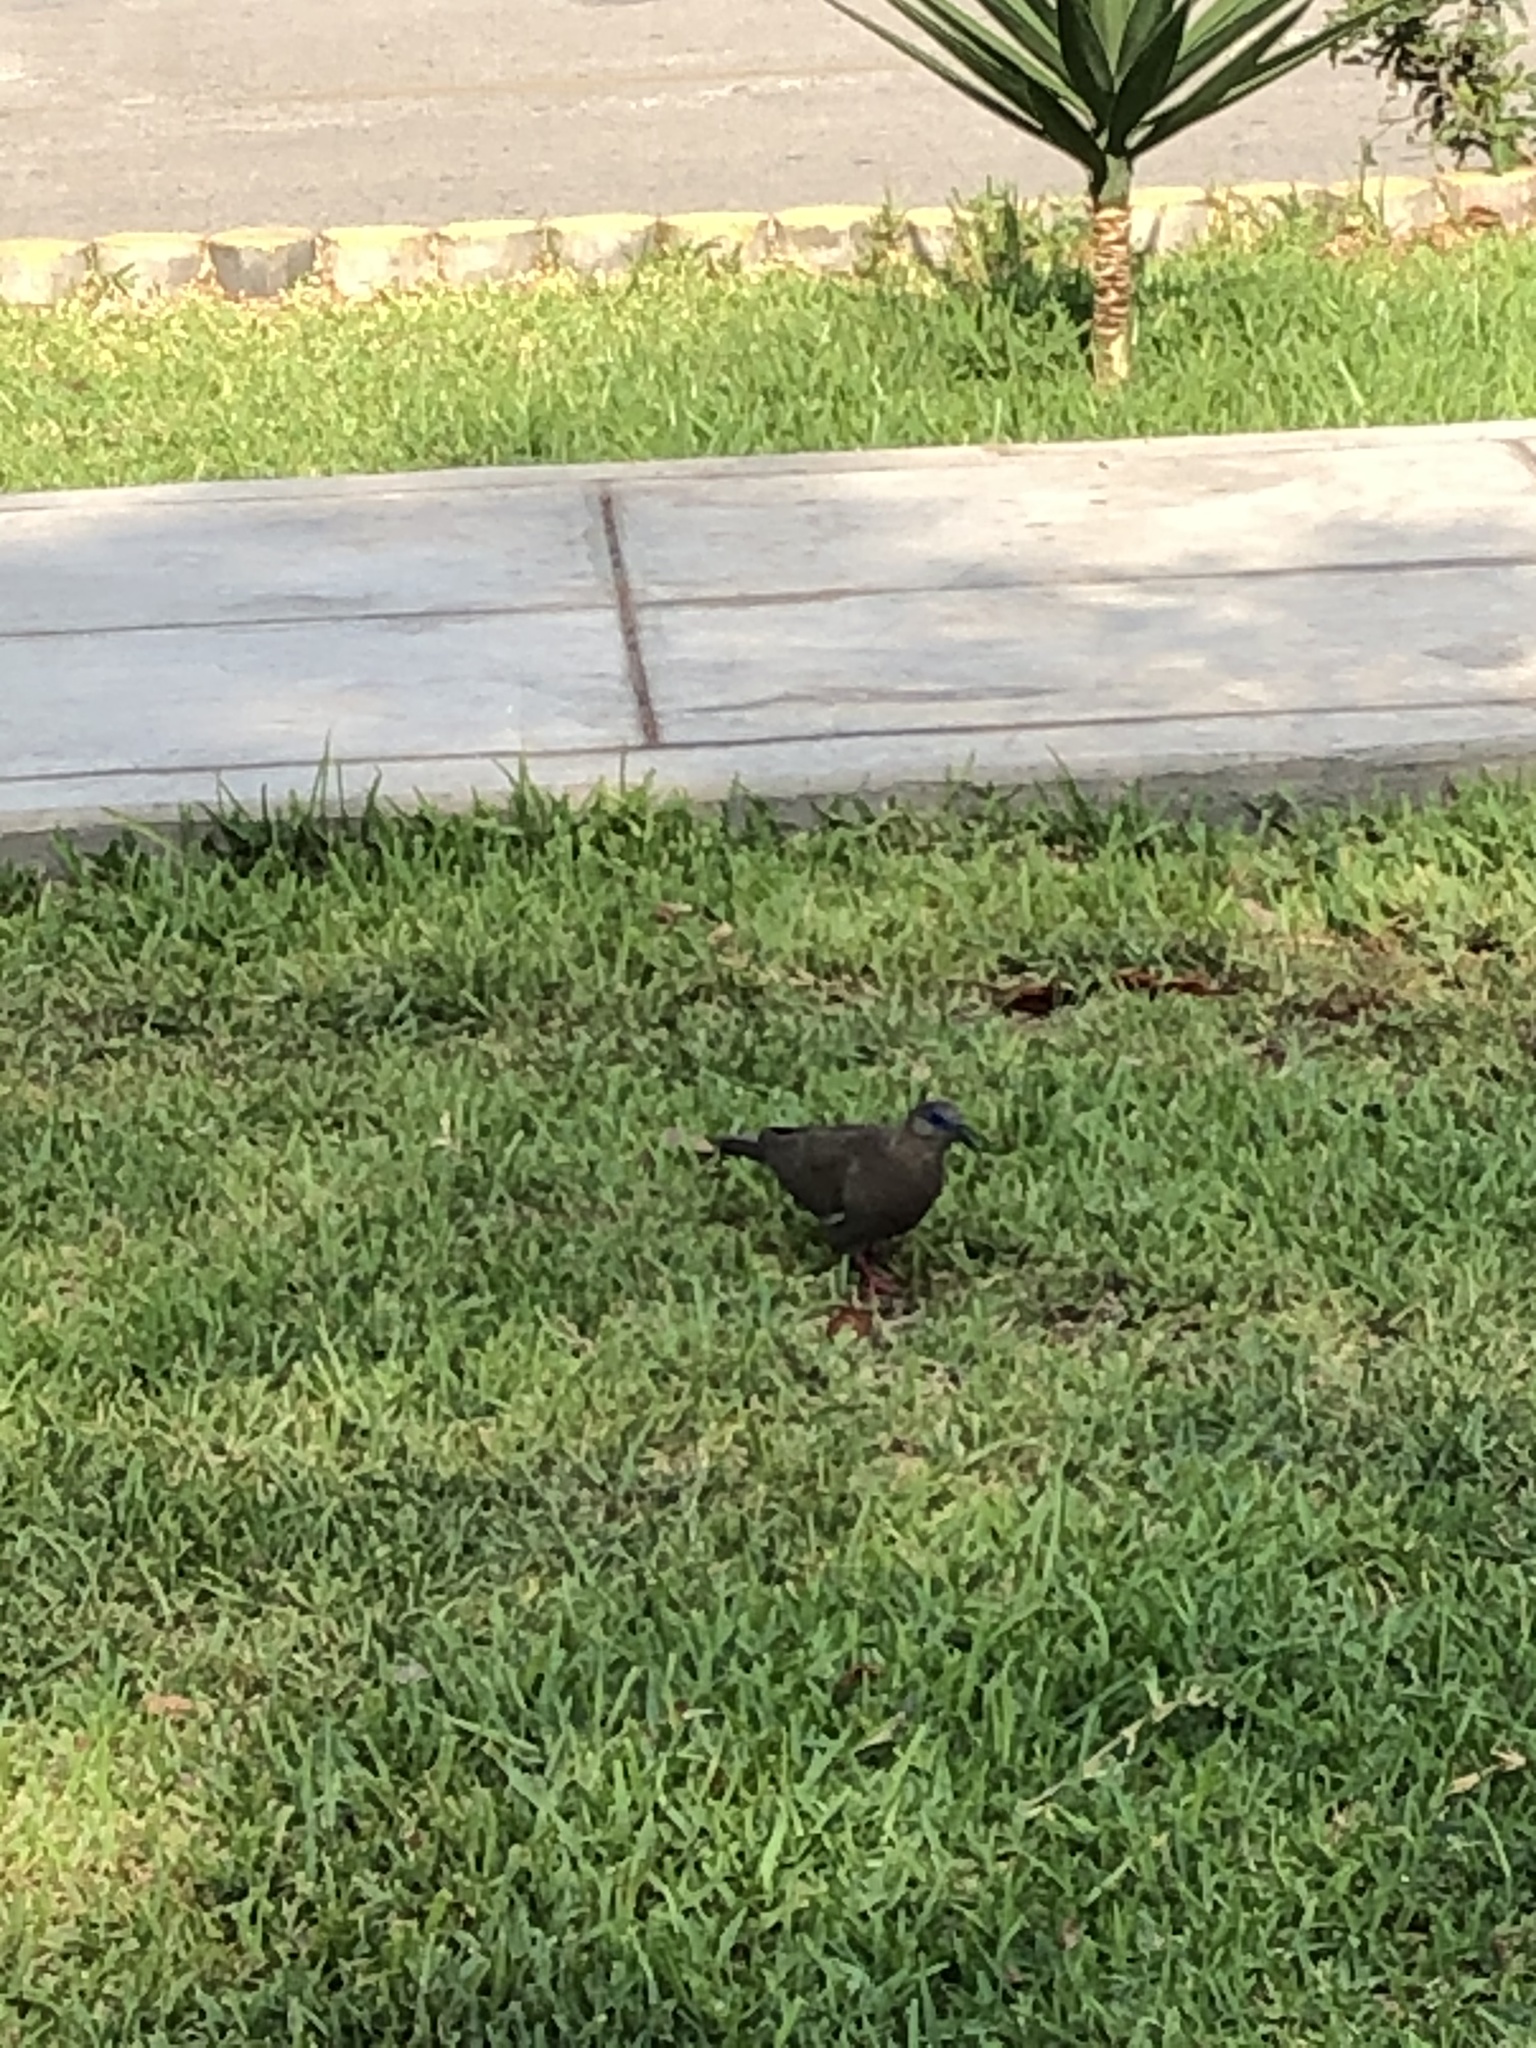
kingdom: Animalia
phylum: Chordata
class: Aves
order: Columbiformes
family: Columbidae
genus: Zenaida
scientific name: Zenaida meloda
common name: West peruvian dove
